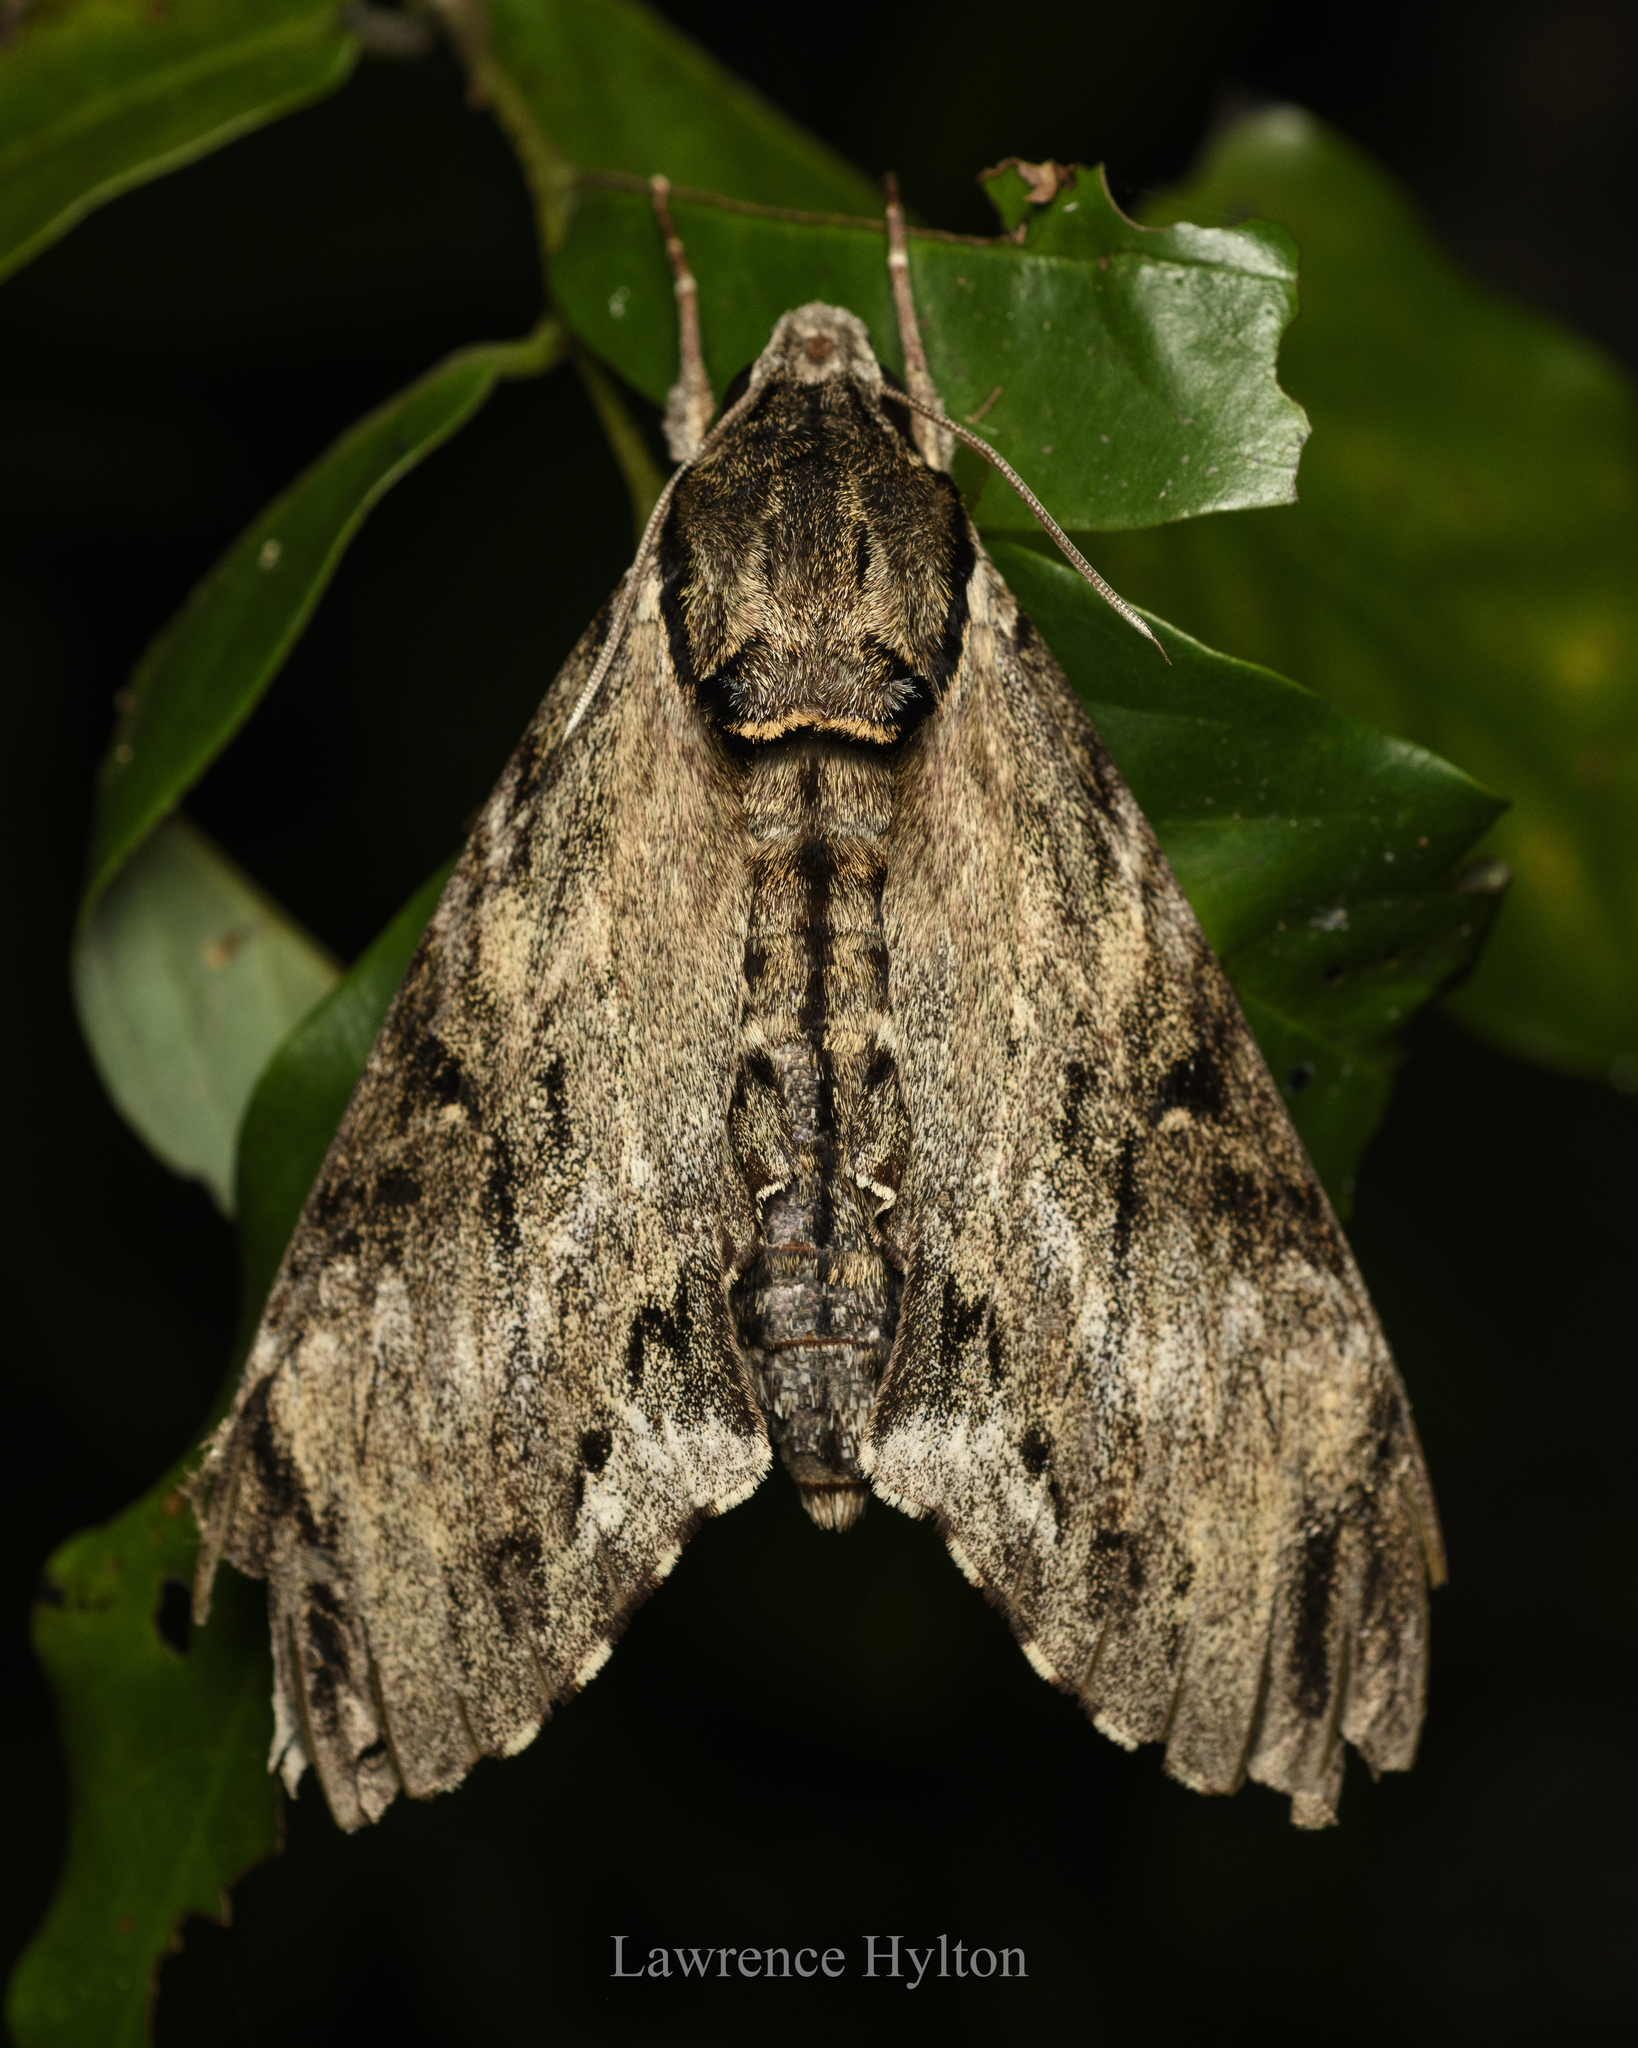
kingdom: Animalia
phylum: Arthropoda
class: Insecta
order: Lepidoptera
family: Sphingidae
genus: Psilogramma
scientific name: Psilogramma discistriga
